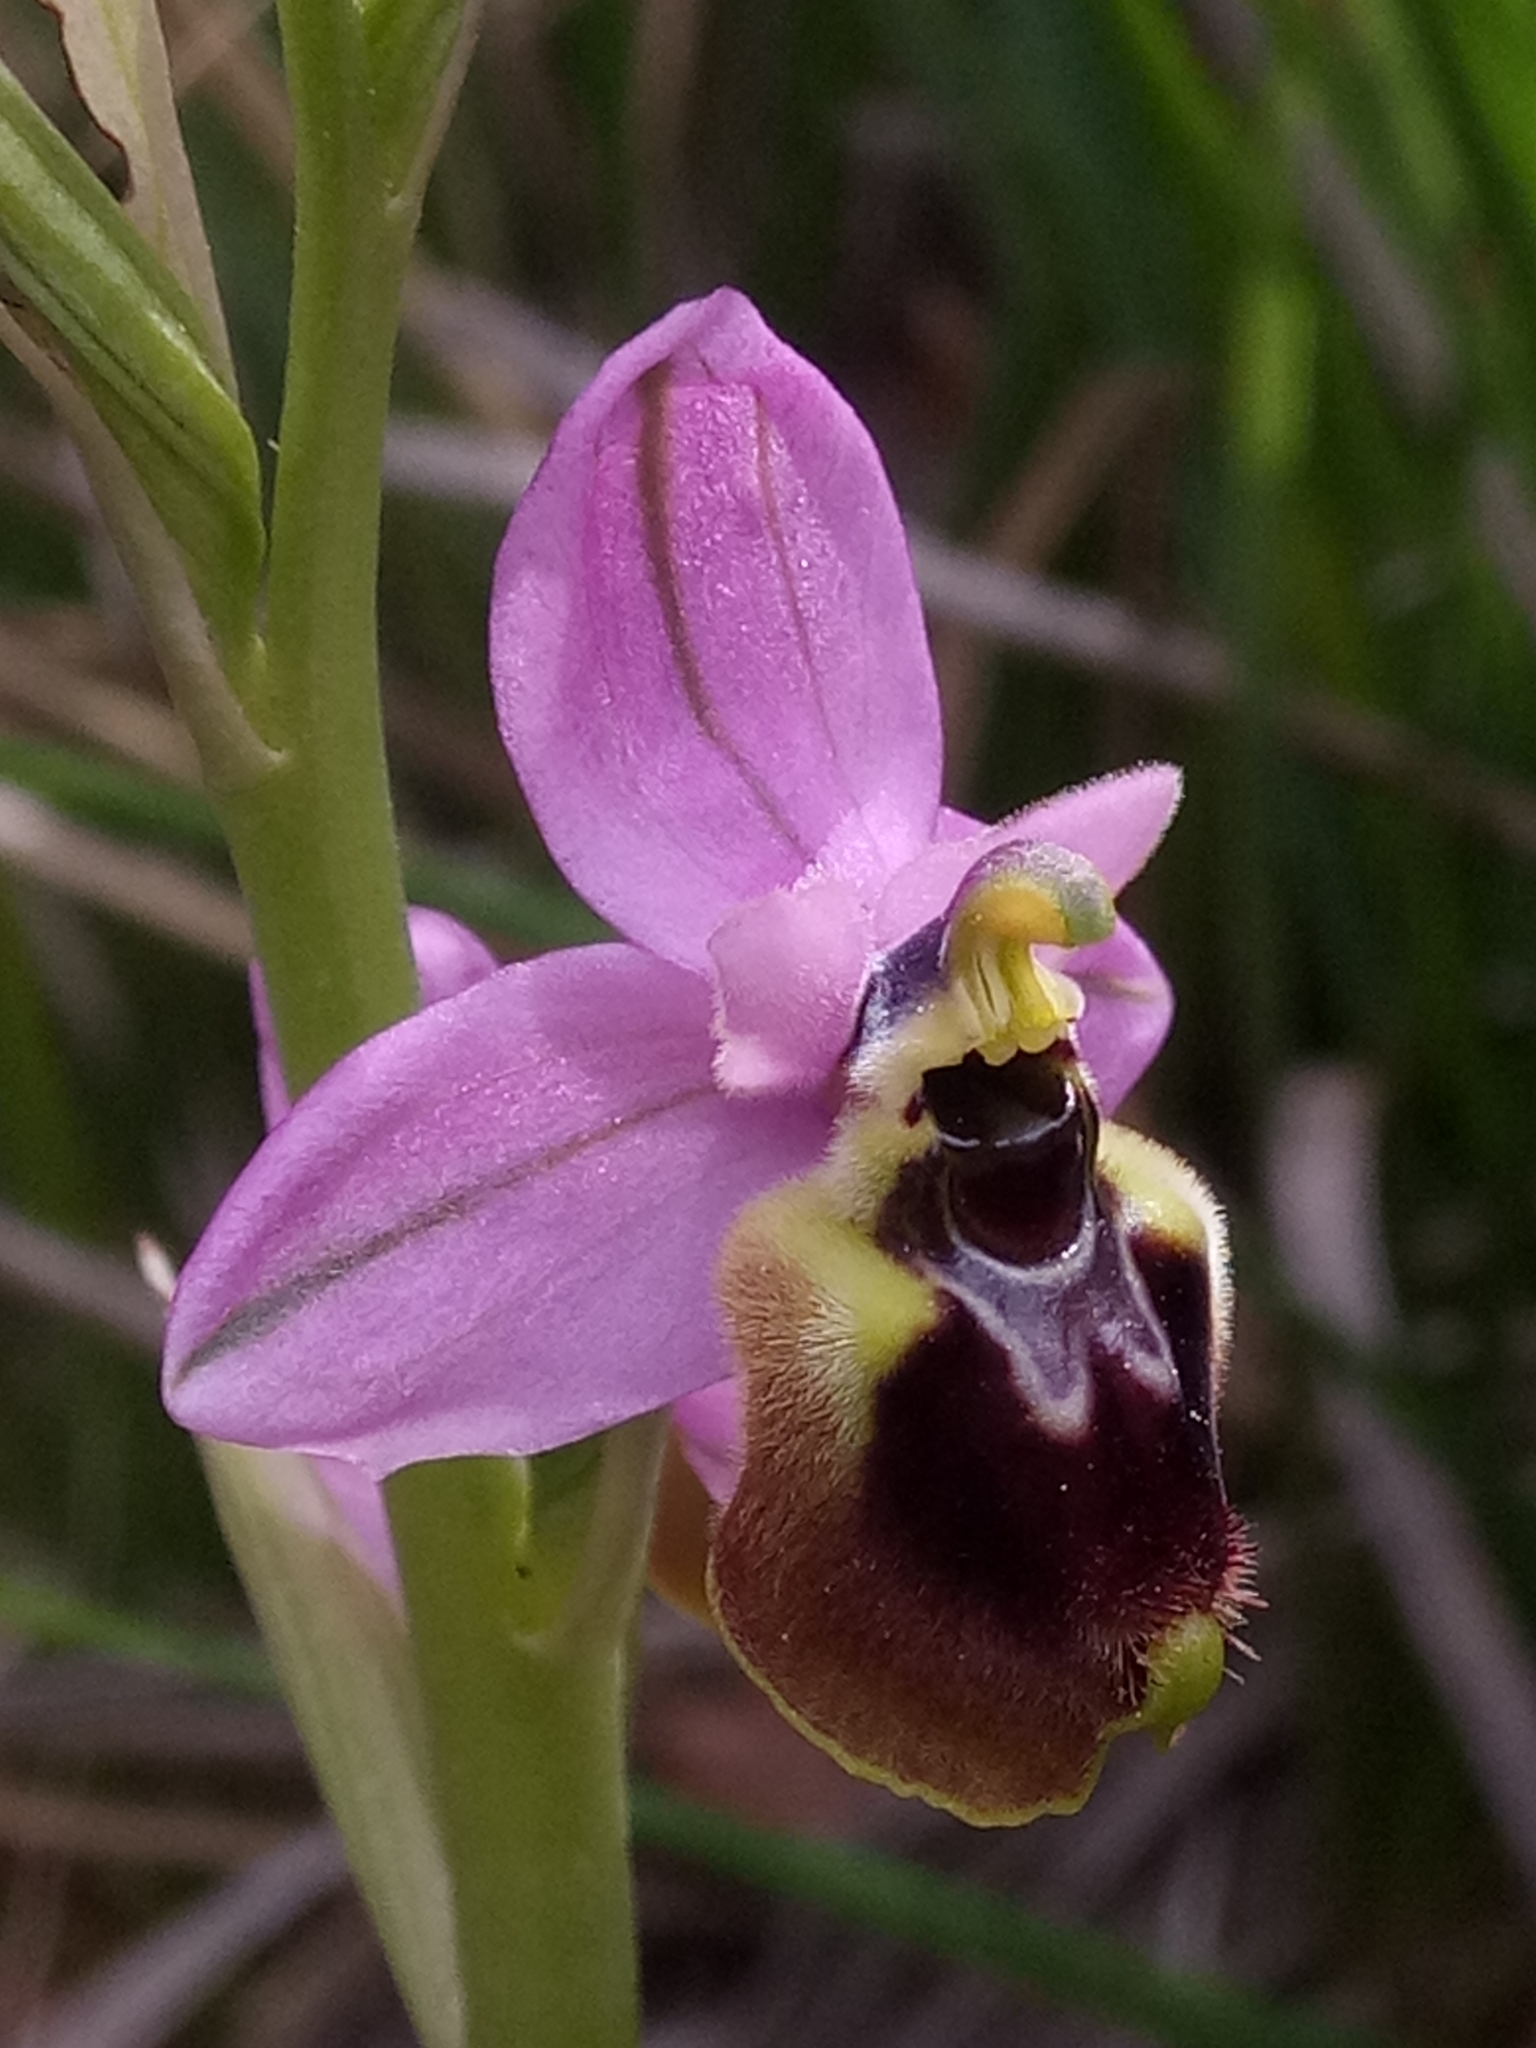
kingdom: Plantae
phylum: Tracheophyta
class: Liliopsida
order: Asparagales
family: Orchidaceae
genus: Ophrys
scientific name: Ophrys tenthredinifera
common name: Sawfly orchid
